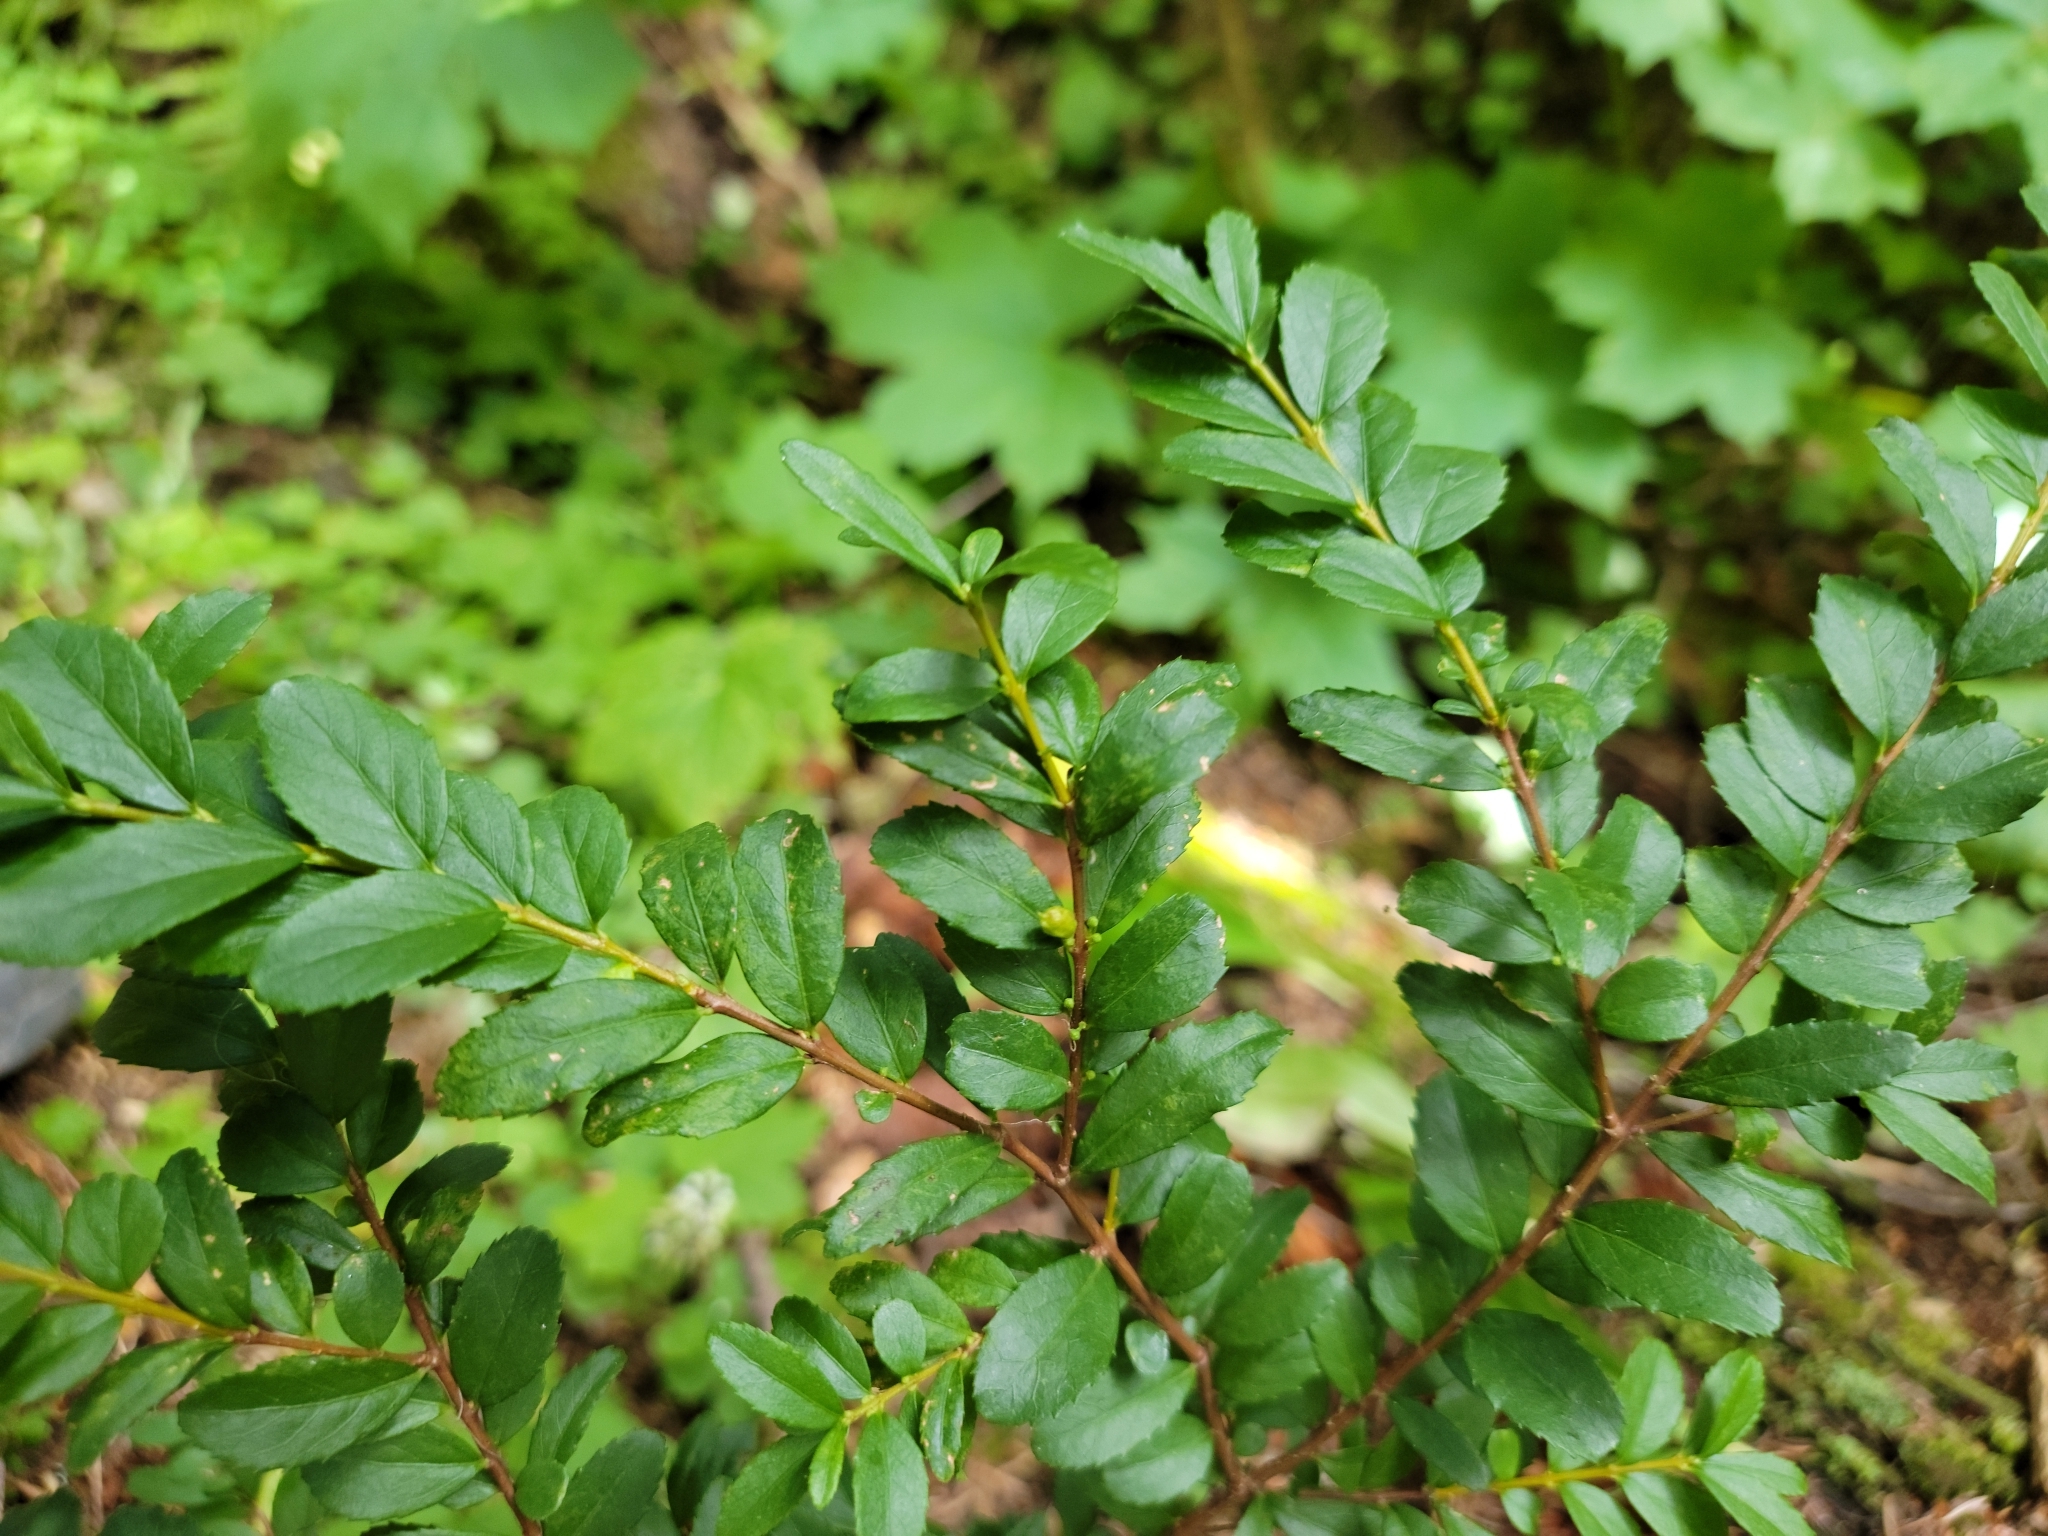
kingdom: Plantae
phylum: Tracheophyta
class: Magnoliopsida
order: Celastrales
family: Celastraceae
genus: Paxistima
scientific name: Paxistima myrsinites
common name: Mountain-lover
